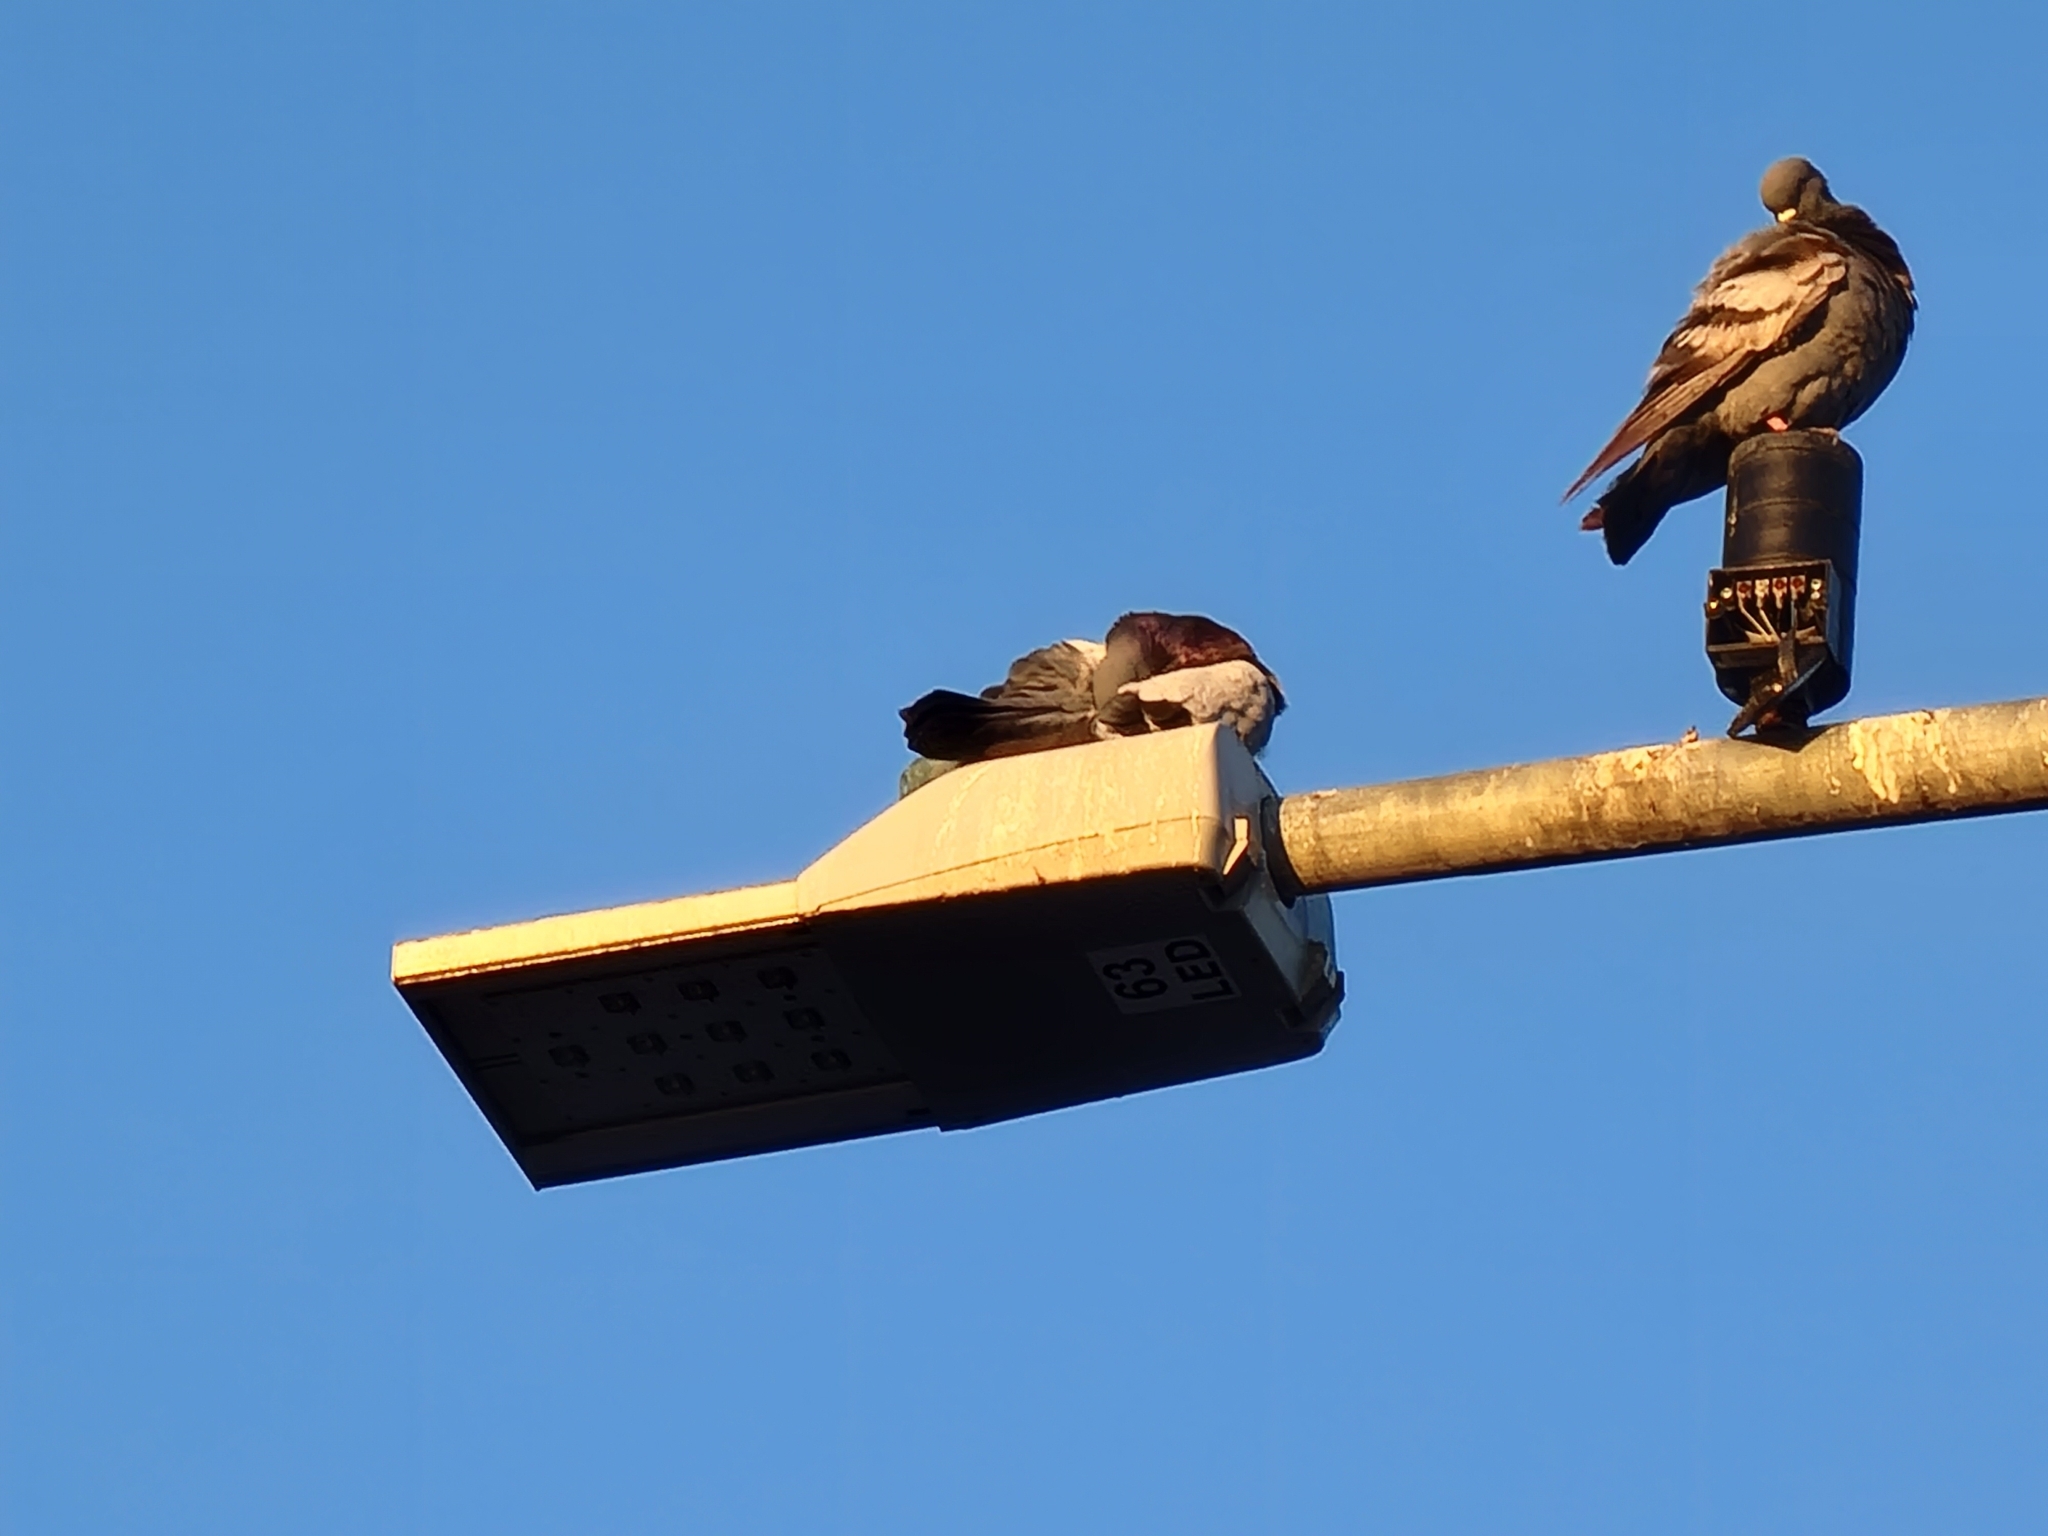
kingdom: Animalia
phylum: Chordata
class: Aves
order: Columbiformes
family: Columbidae
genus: Columba
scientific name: Columba livia
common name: Rock pigeon
